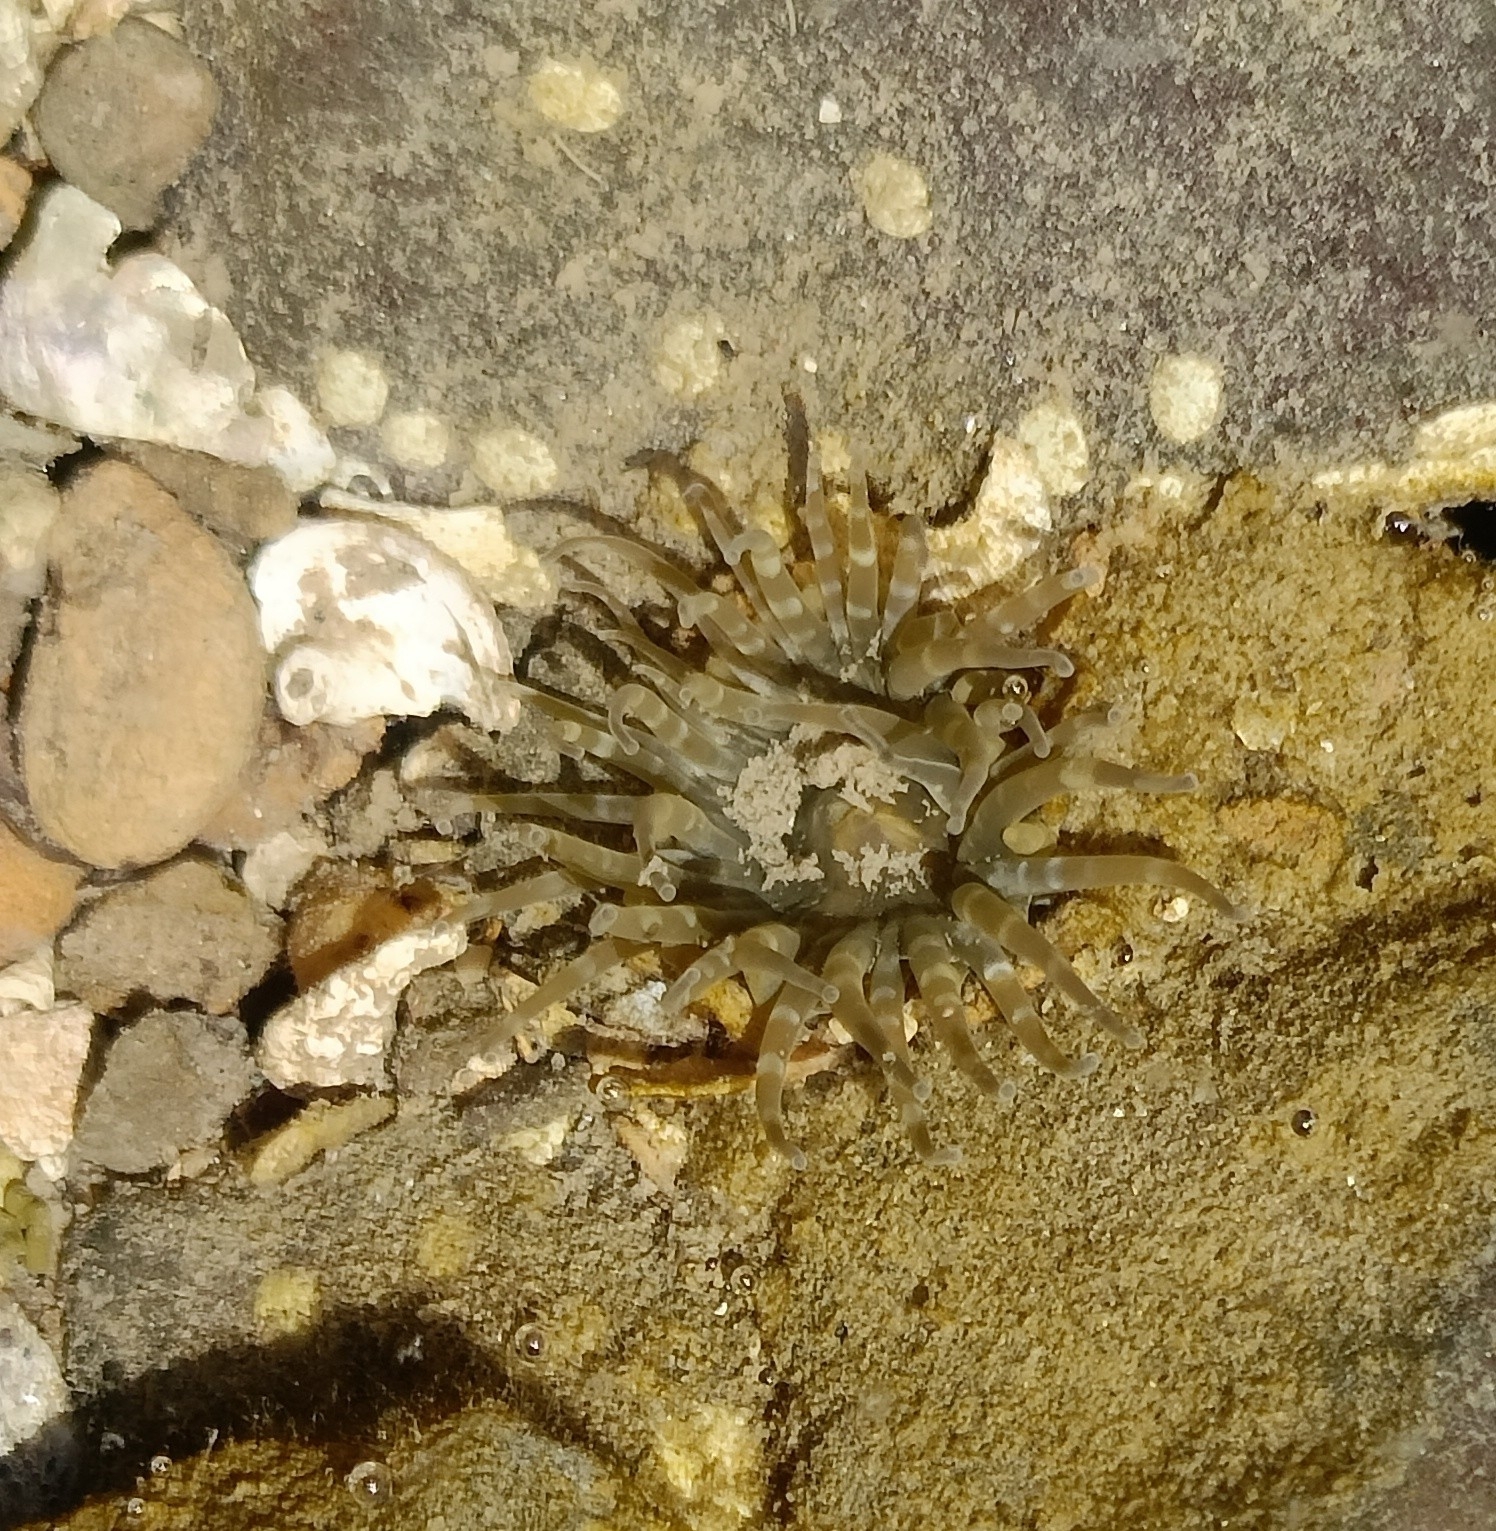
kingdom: Animalia
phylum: Cnidaria
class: Anthozoa
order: Actiniaria
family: Actiniidae
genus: Anthopleura
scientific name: Anthopleura dixoniana
